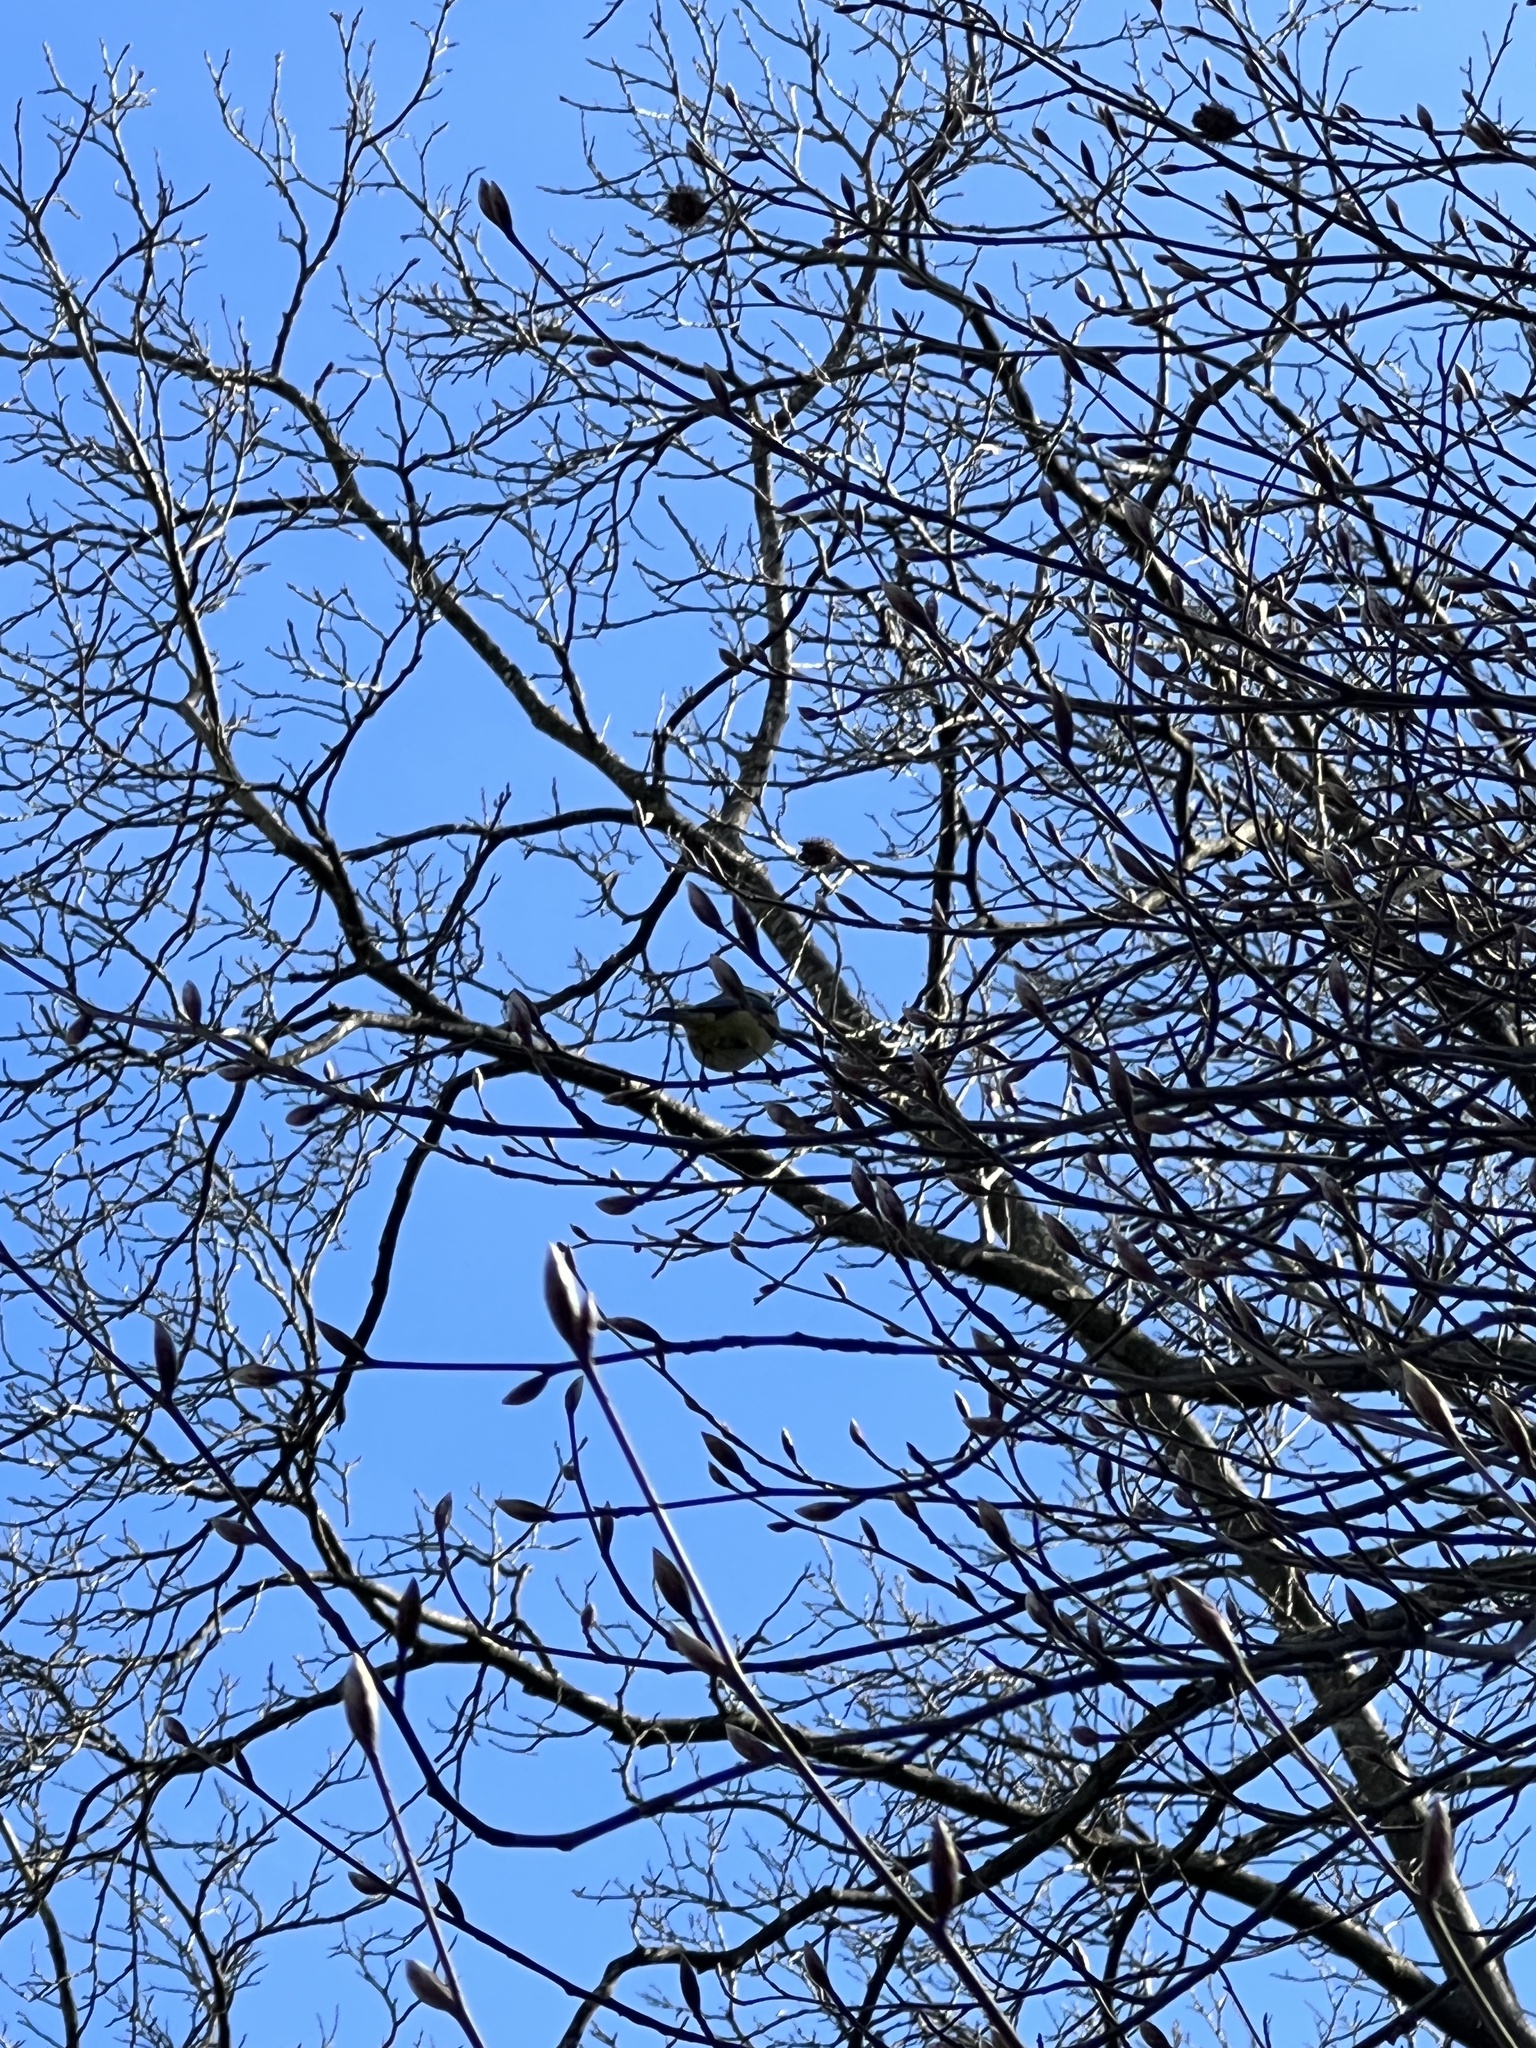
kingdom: Animalia
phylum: Chordata
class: Aves
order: Passeriformes
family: Paridae
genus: Cyanistes
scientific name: Cyanistes caeruleus
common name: Eurasian blue tit
